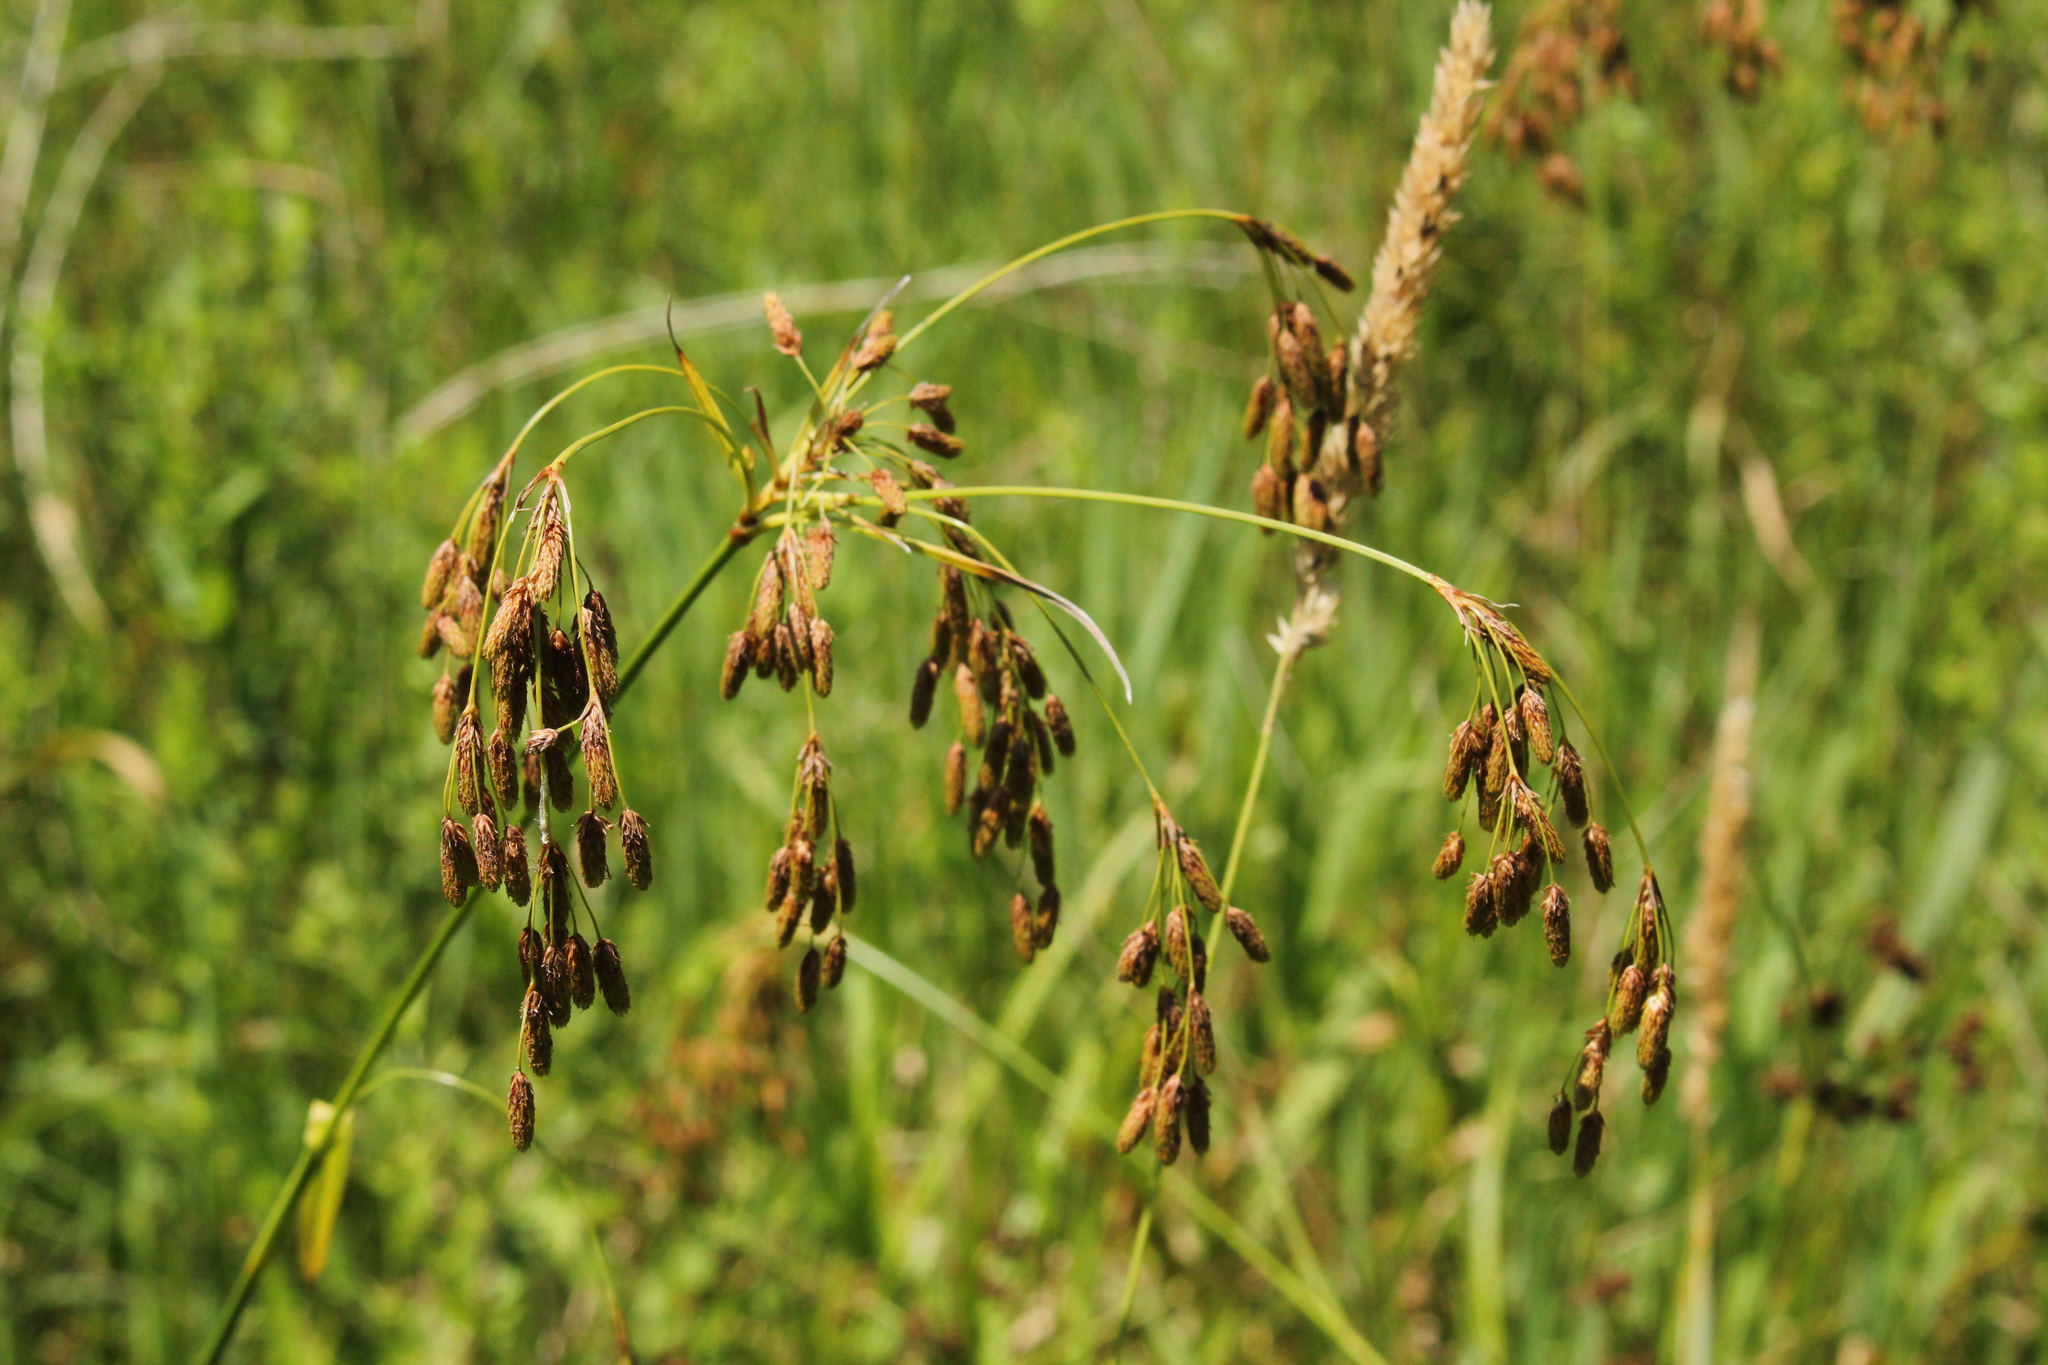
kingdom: Plantae
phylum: Tracheophyta
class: Liliopsida
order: Poales
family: Cyperaceae
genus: Scirpus
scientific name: Scirpus pendulus
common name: Nodding bulrush
